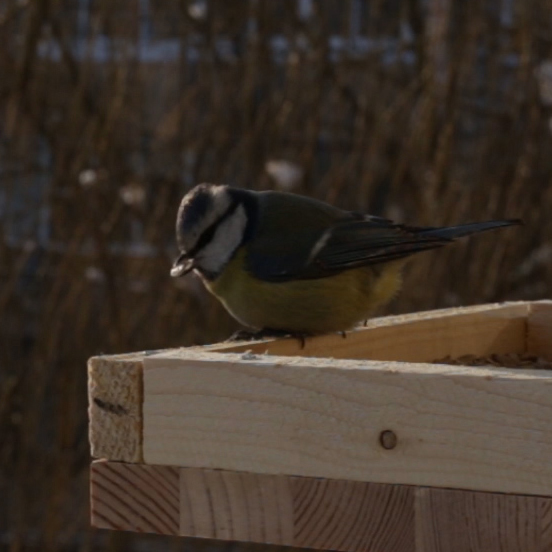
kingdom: Animalia
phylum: Chordata
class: Aves
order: Passeriformes
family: Paridae
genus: Cyanistes
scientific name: Cyanistes caeruleus
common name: Eurasian blue tit
